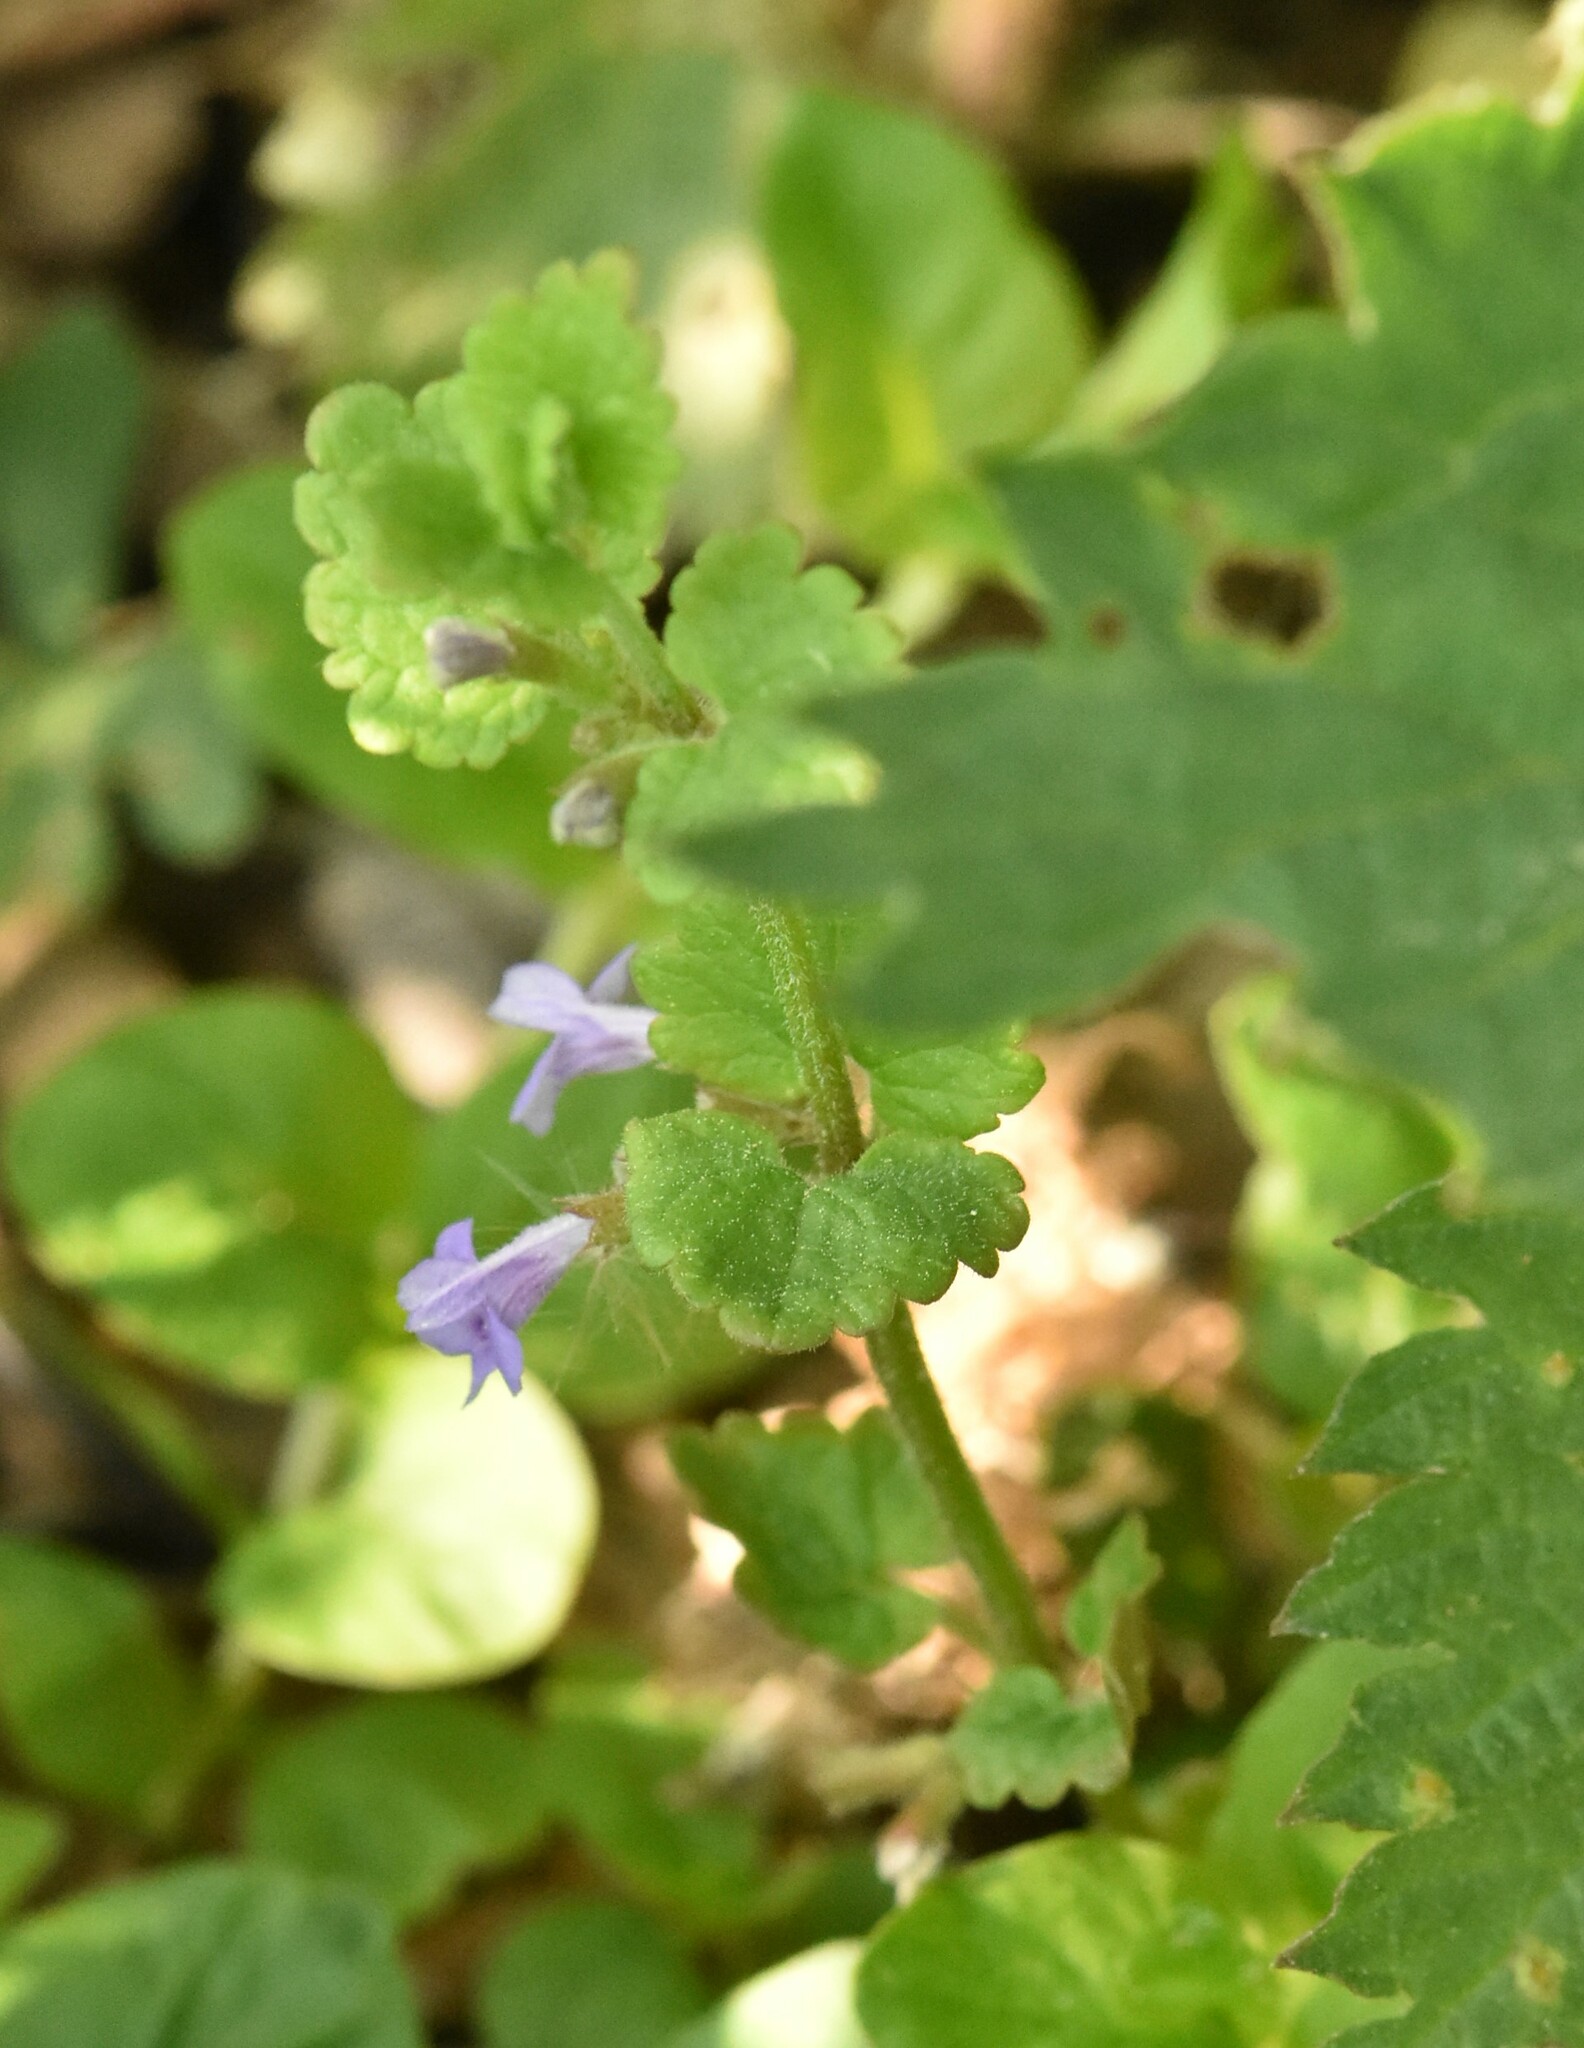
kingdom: Plantae
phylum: Tracheophyta
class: Magnoliopsida
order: Lamiales
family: Lamiaceae
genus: Glechoma
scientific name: Glechoma hederacea
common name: Ground ivy
